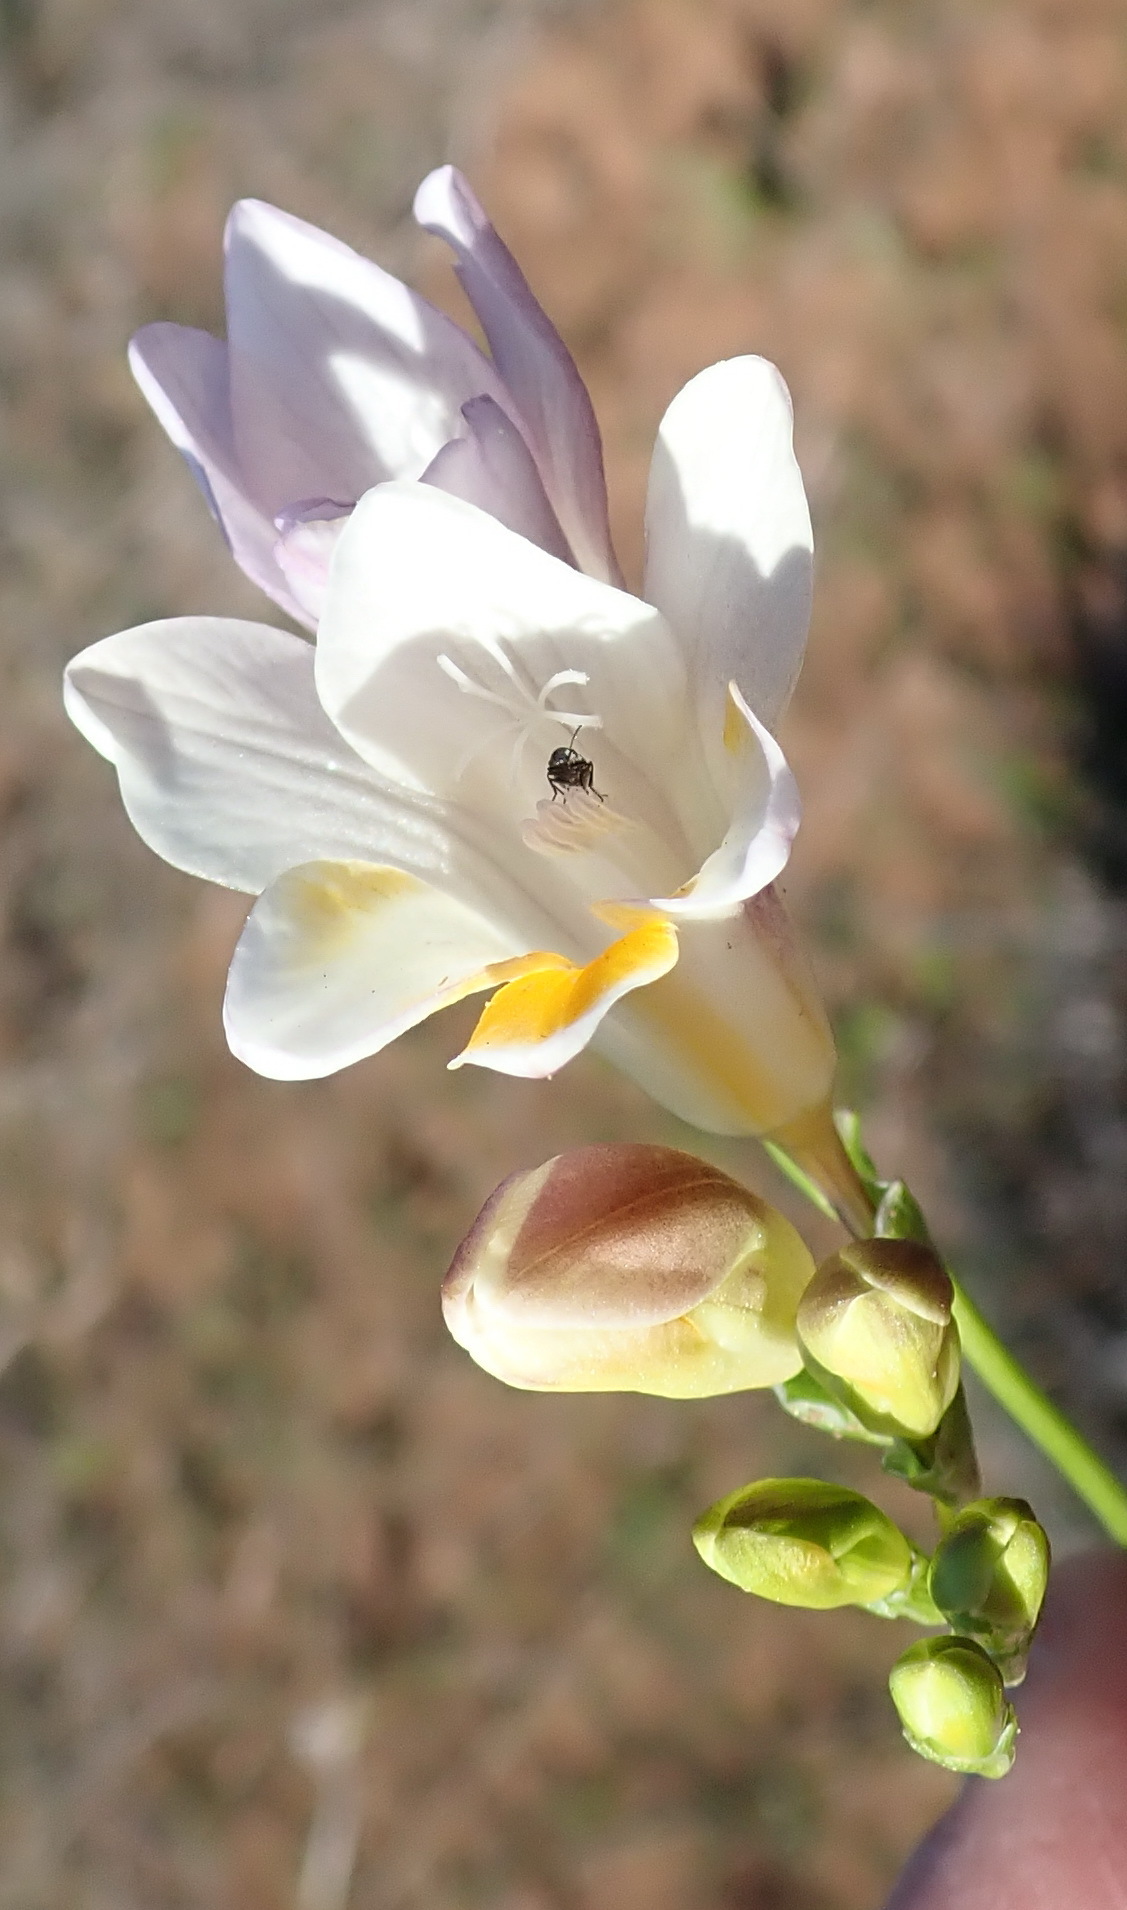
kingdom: Plantae
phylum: Tracheophyta
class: Liliopsida
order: Asparagales
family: Iridaceae
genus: Freesia
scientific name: Freesia leichtlinii
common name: Freesia
